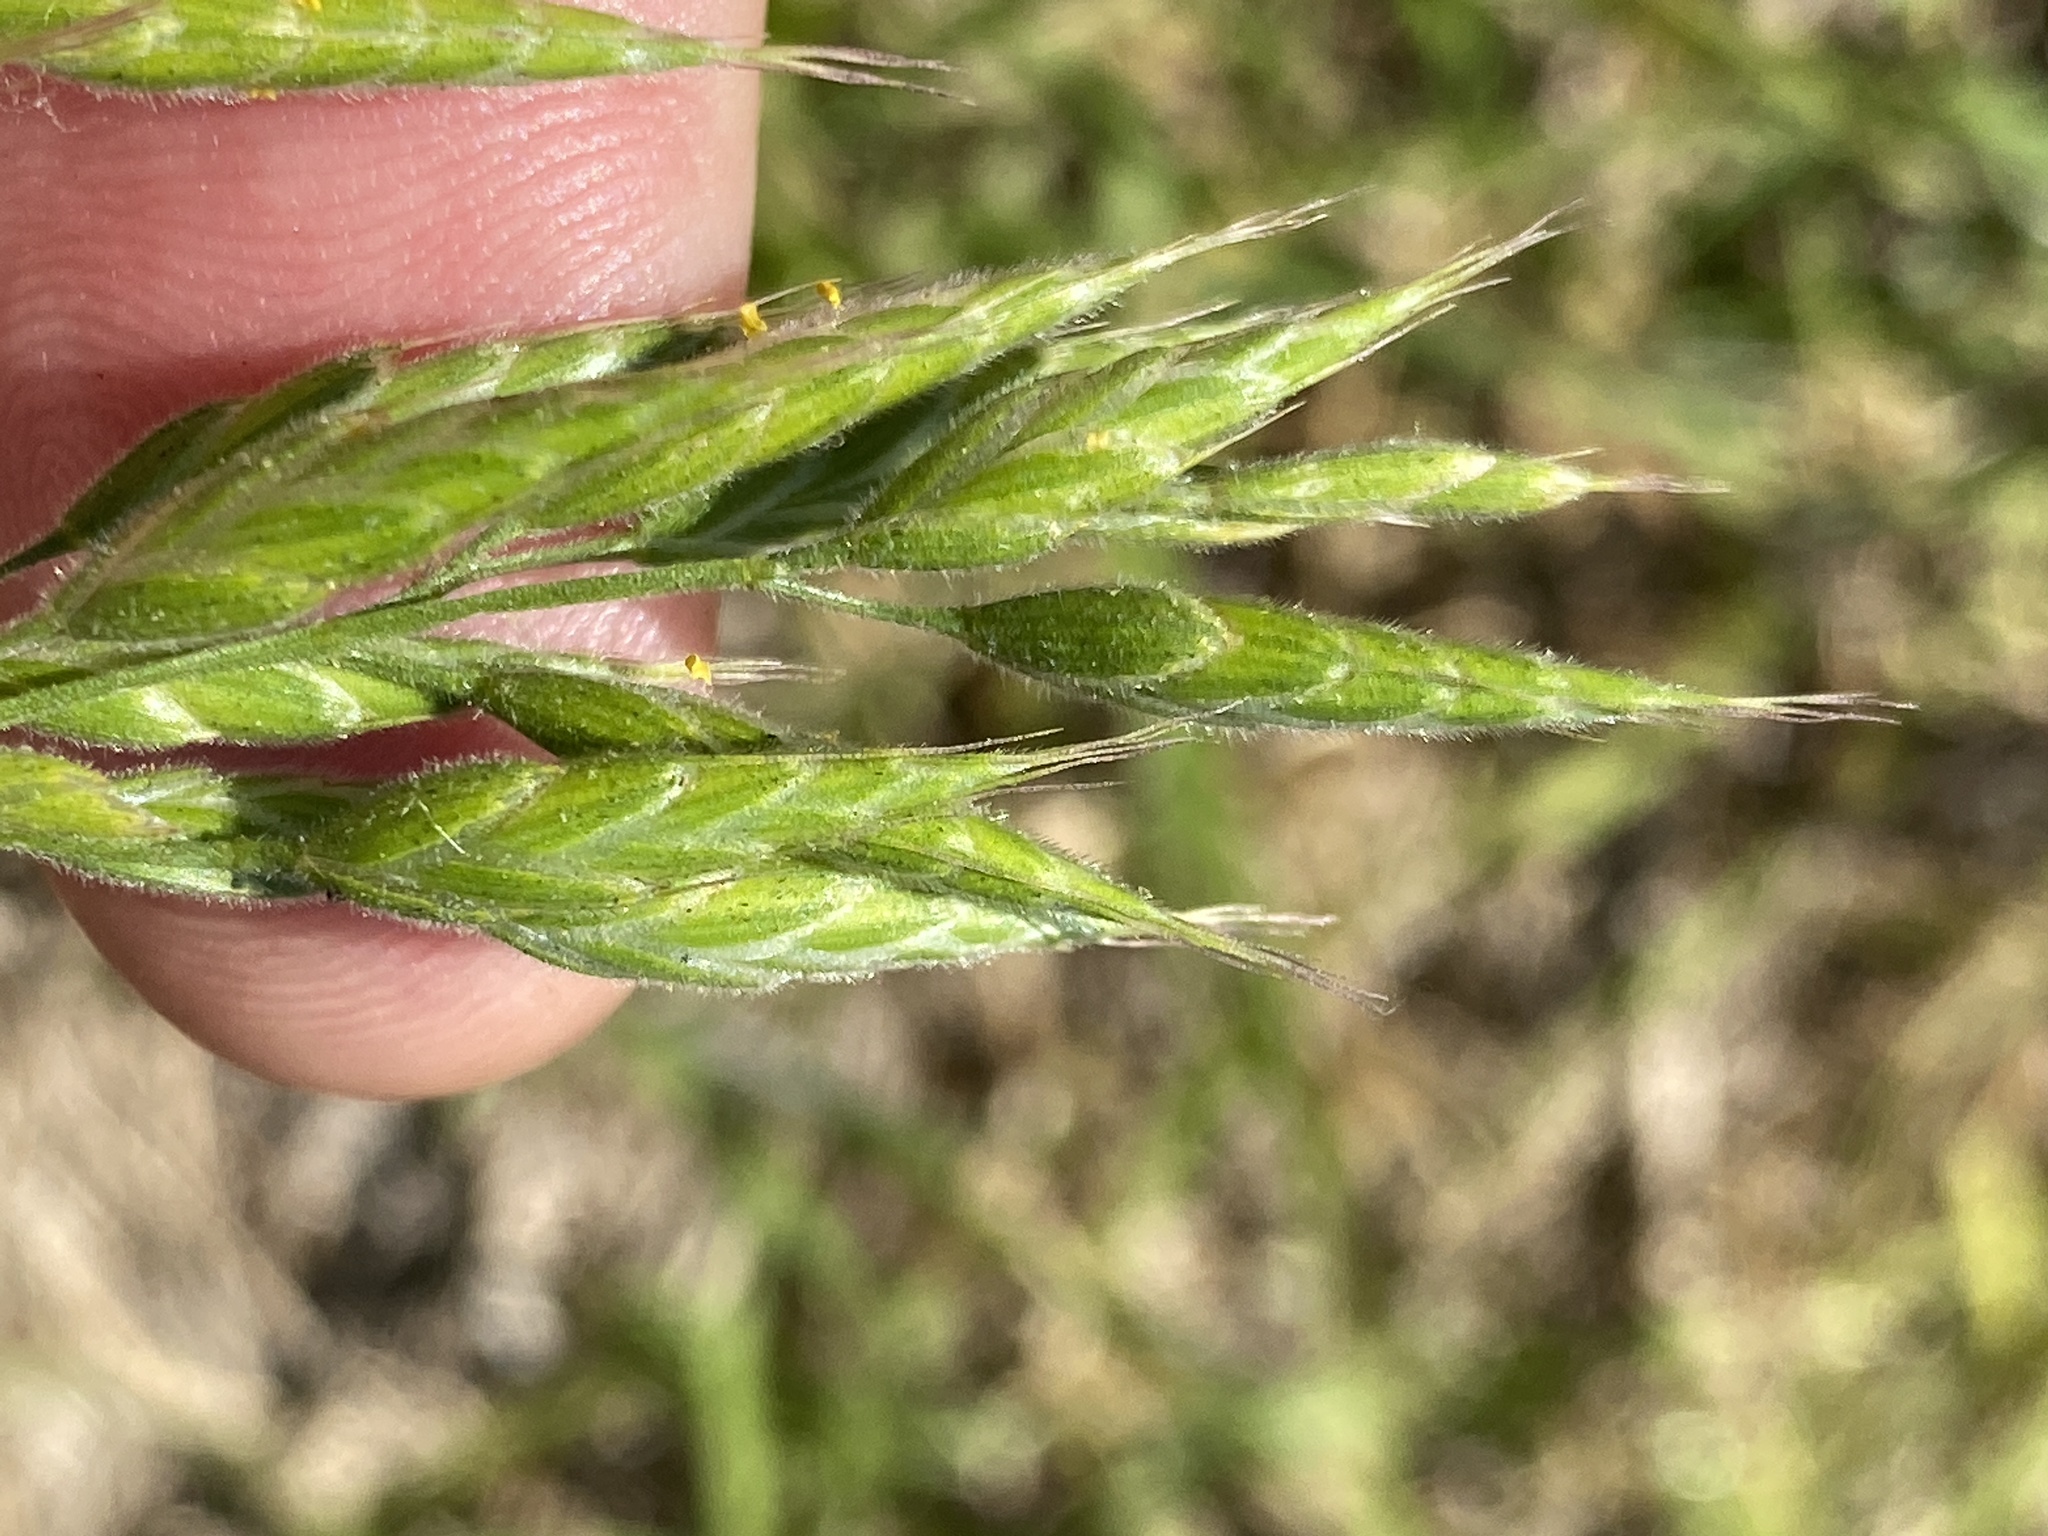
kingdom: Plantae
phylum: Tracheophyta
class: Liliopsida
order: Poales
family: Poaceae
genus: Bromus
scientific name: Bromus hordeaceus
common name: Soft brome
